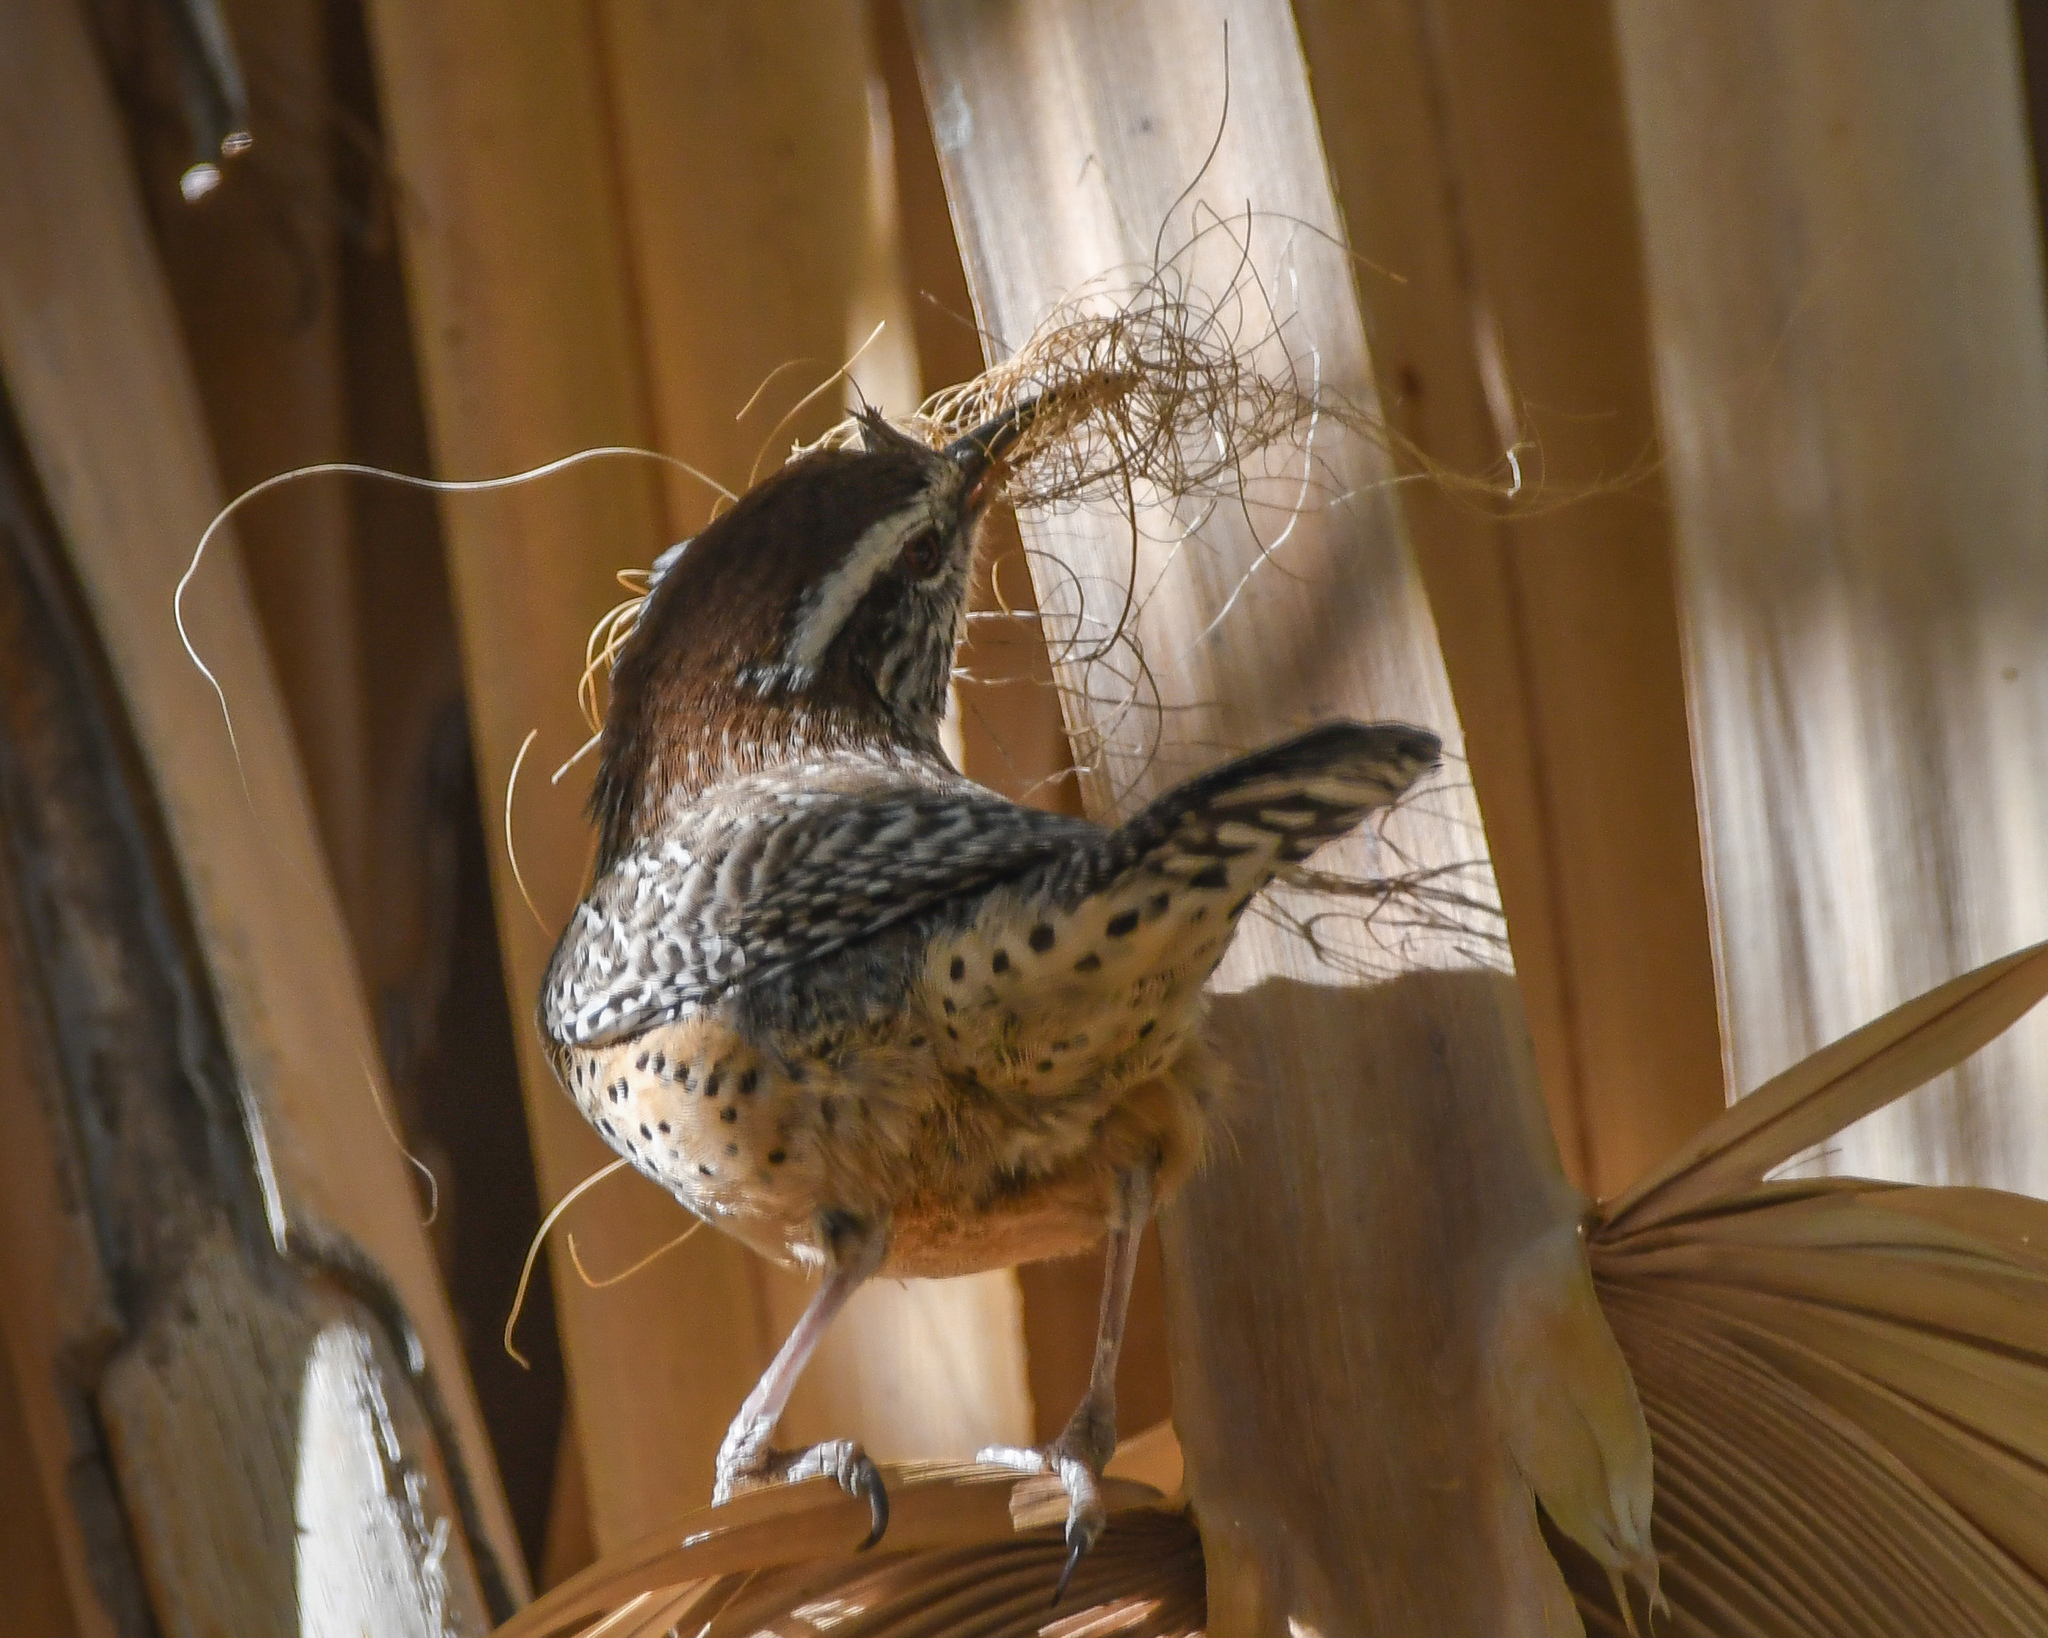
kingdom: Animalia
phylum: Chordata
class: Aves
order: Passeriformes
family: Troglodytidae
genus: Campylorhynchus
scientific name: Campylorhynchus brunneicapillus
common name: Cactus wren
